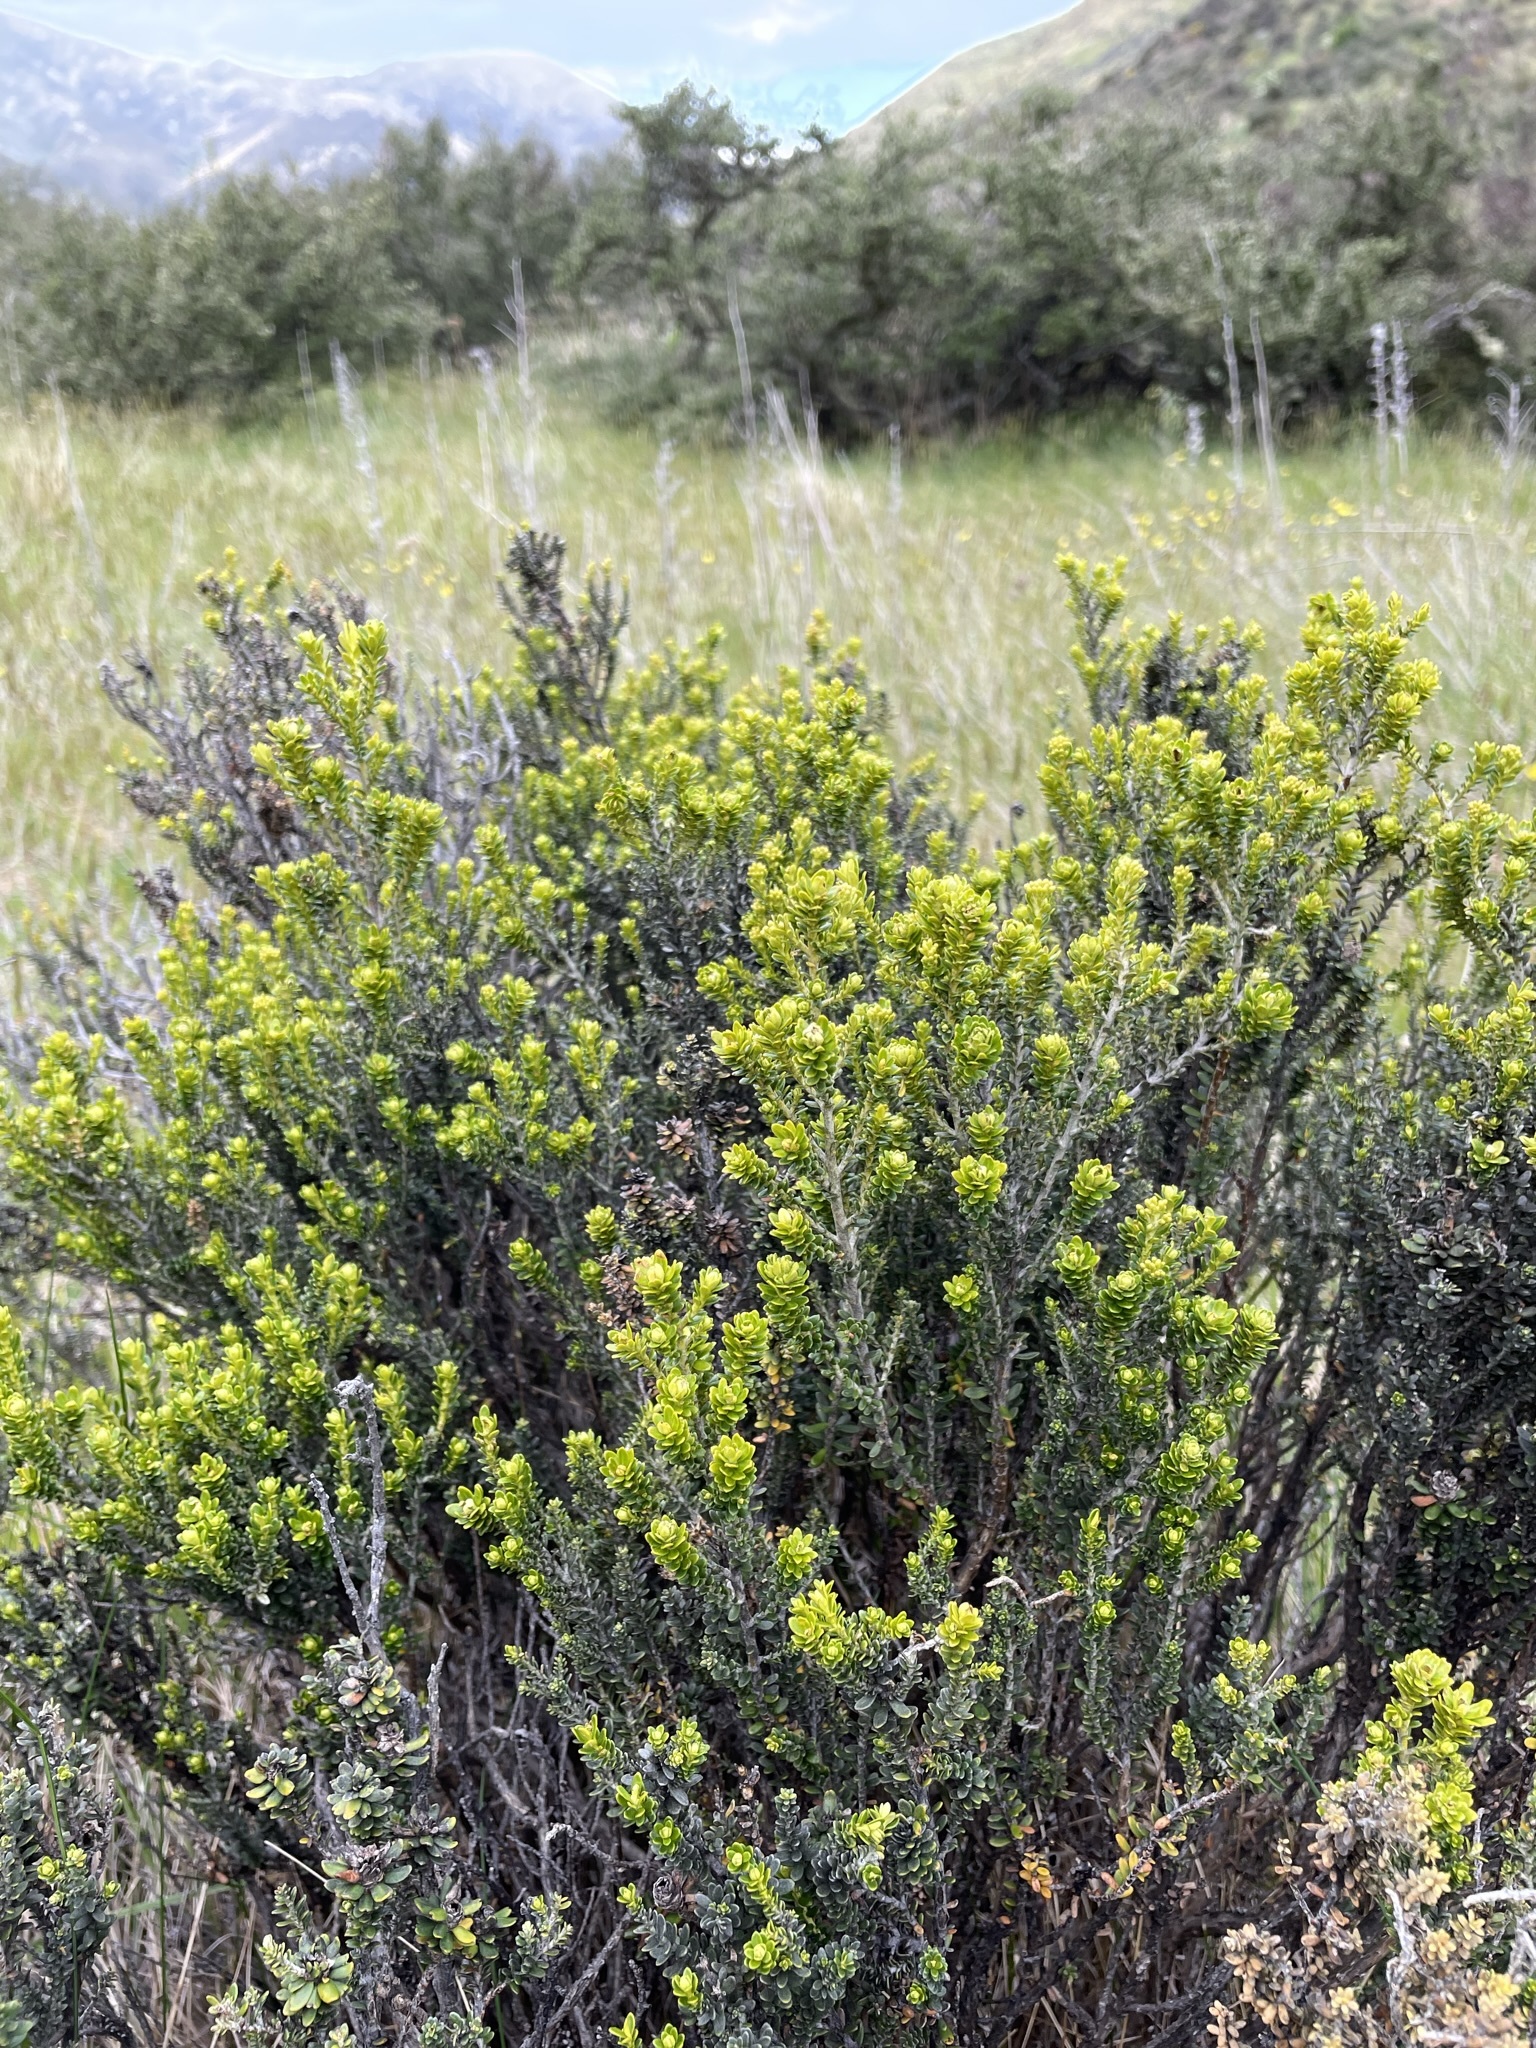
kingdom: Plantae
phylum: Tracheophyta
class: Magnoliopsida
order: Asterales
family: Asteraceae
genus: Ozothamnus
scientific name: Ozothamnus leptophyllus
